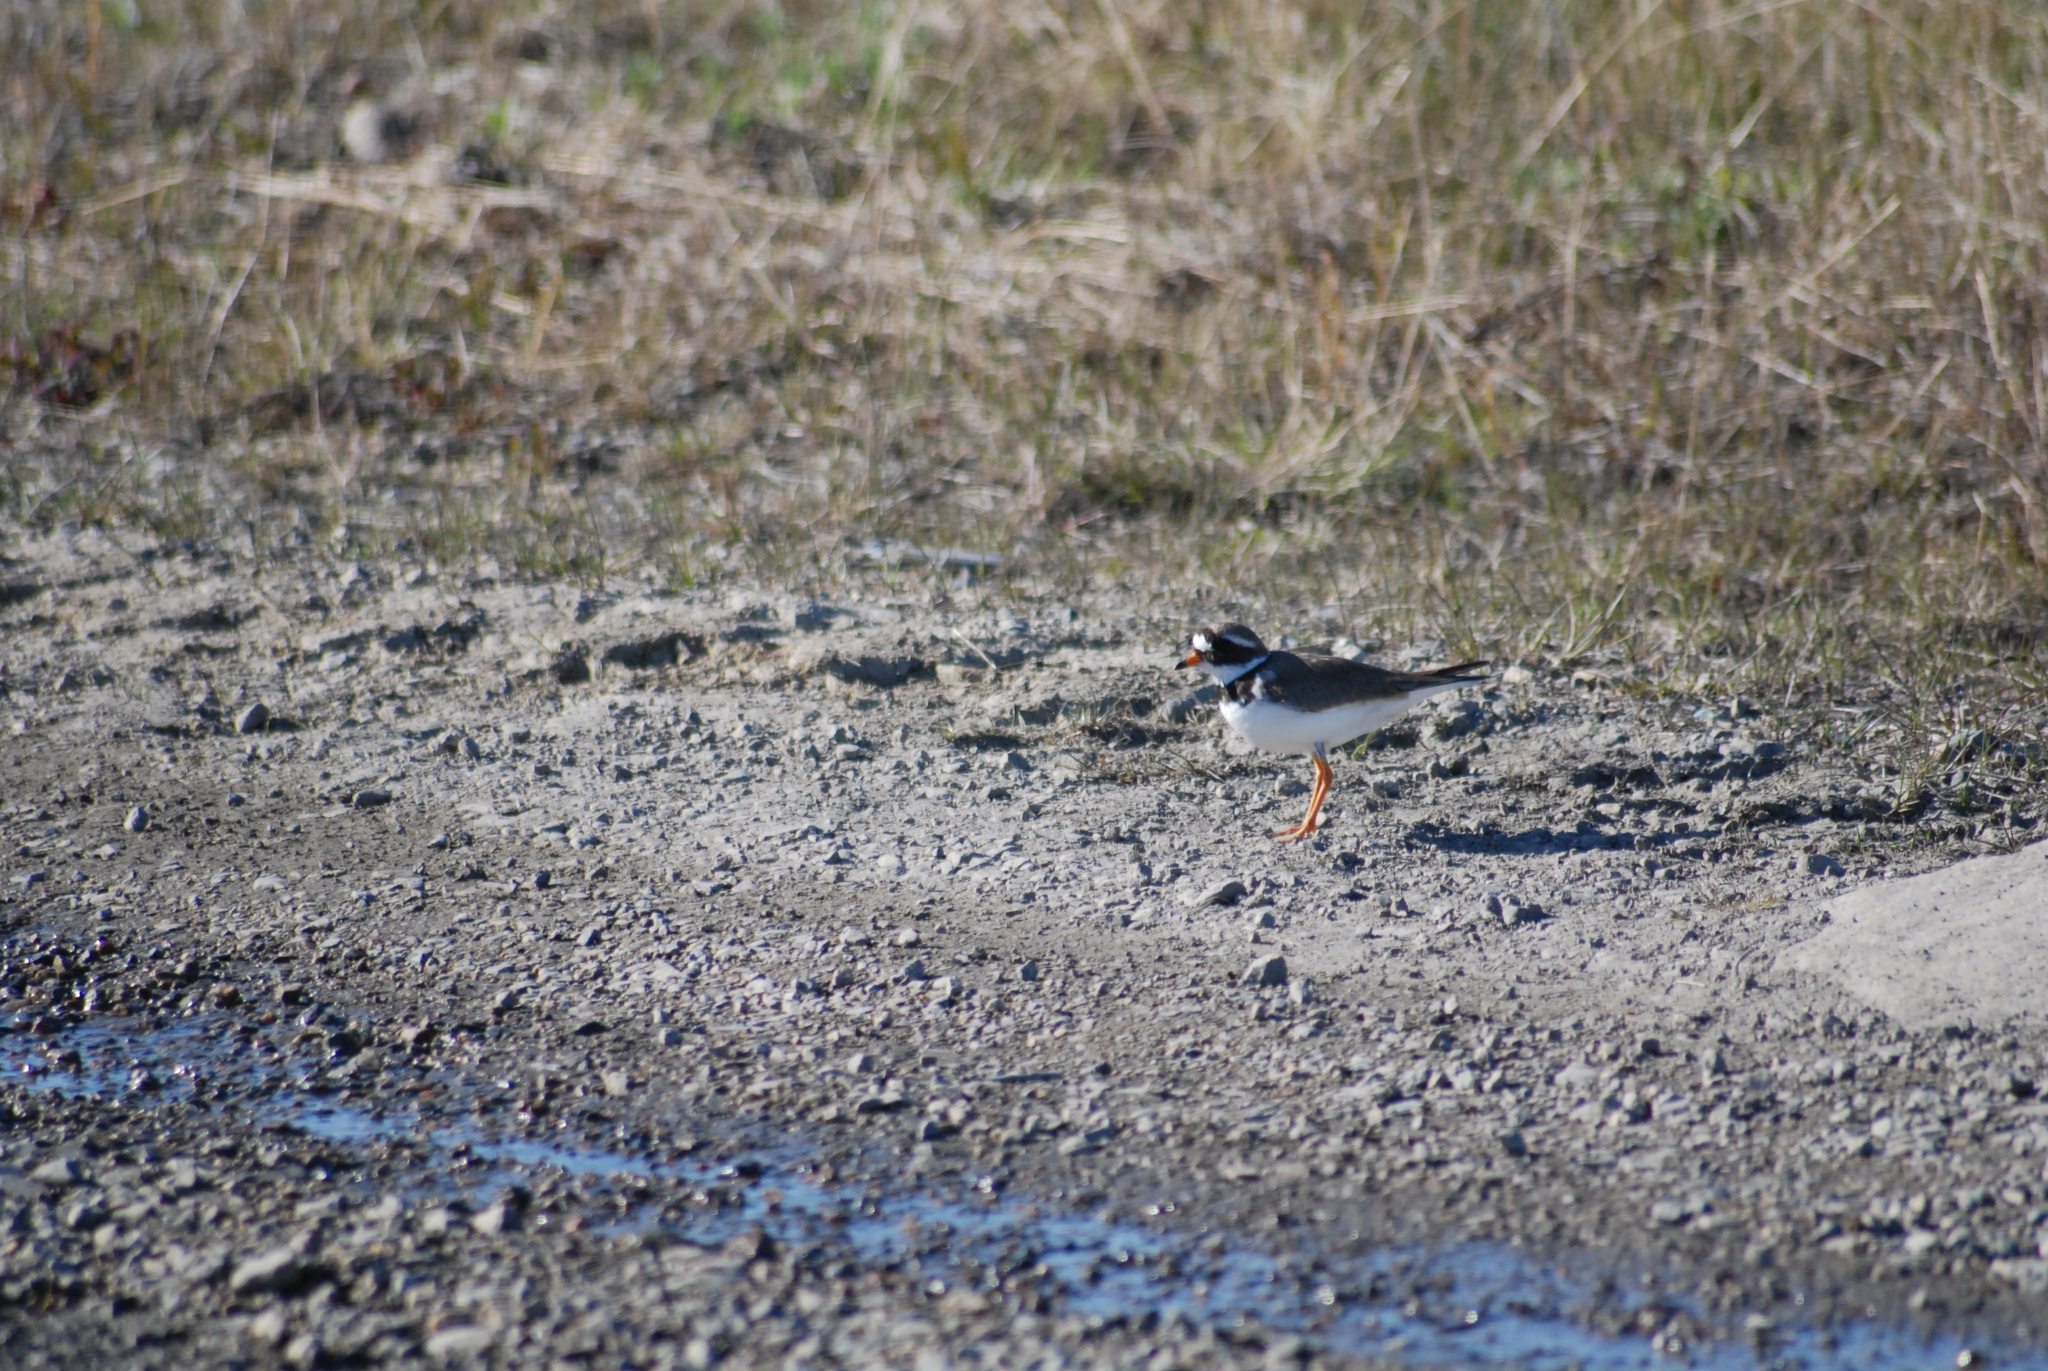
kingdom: Animalia
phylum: Chordata
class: Aves
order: Charadriiformes
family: Charadriidae
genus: Charadrius
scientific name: Charadrius hiaticula
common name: Common ringed plover
